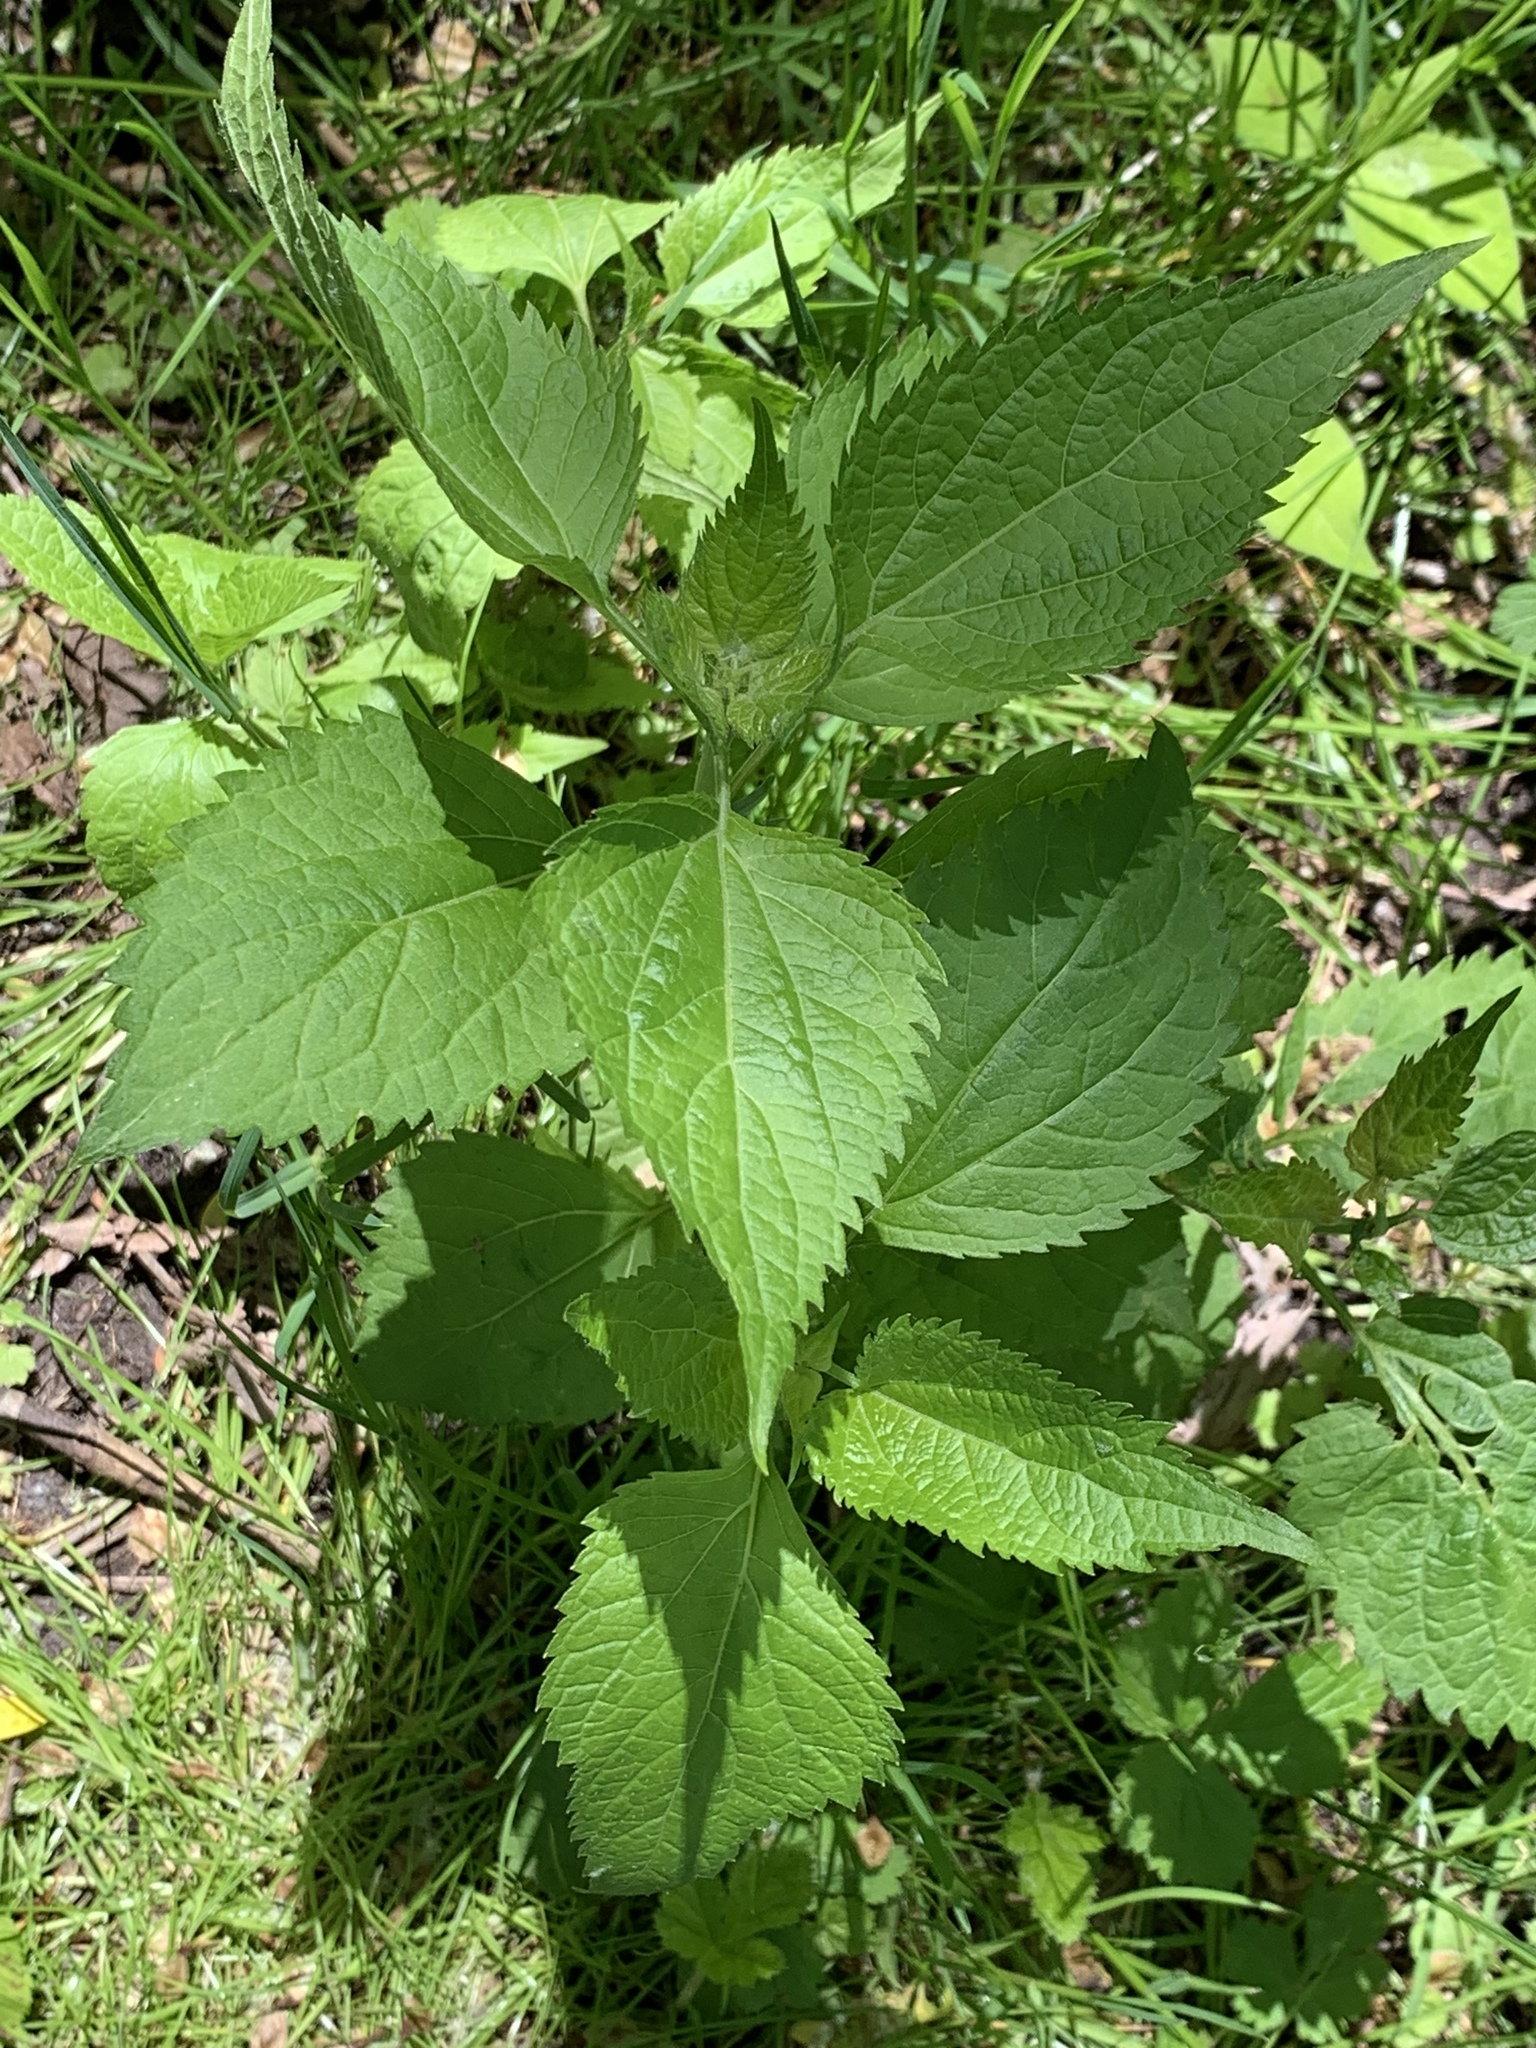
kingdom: Plantae
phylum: Tracheophyta
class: Magnoliopsida
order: Asterales
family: Asteraceae
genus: Ageratina
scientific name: Ageratina altissima
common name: White snakeroot
